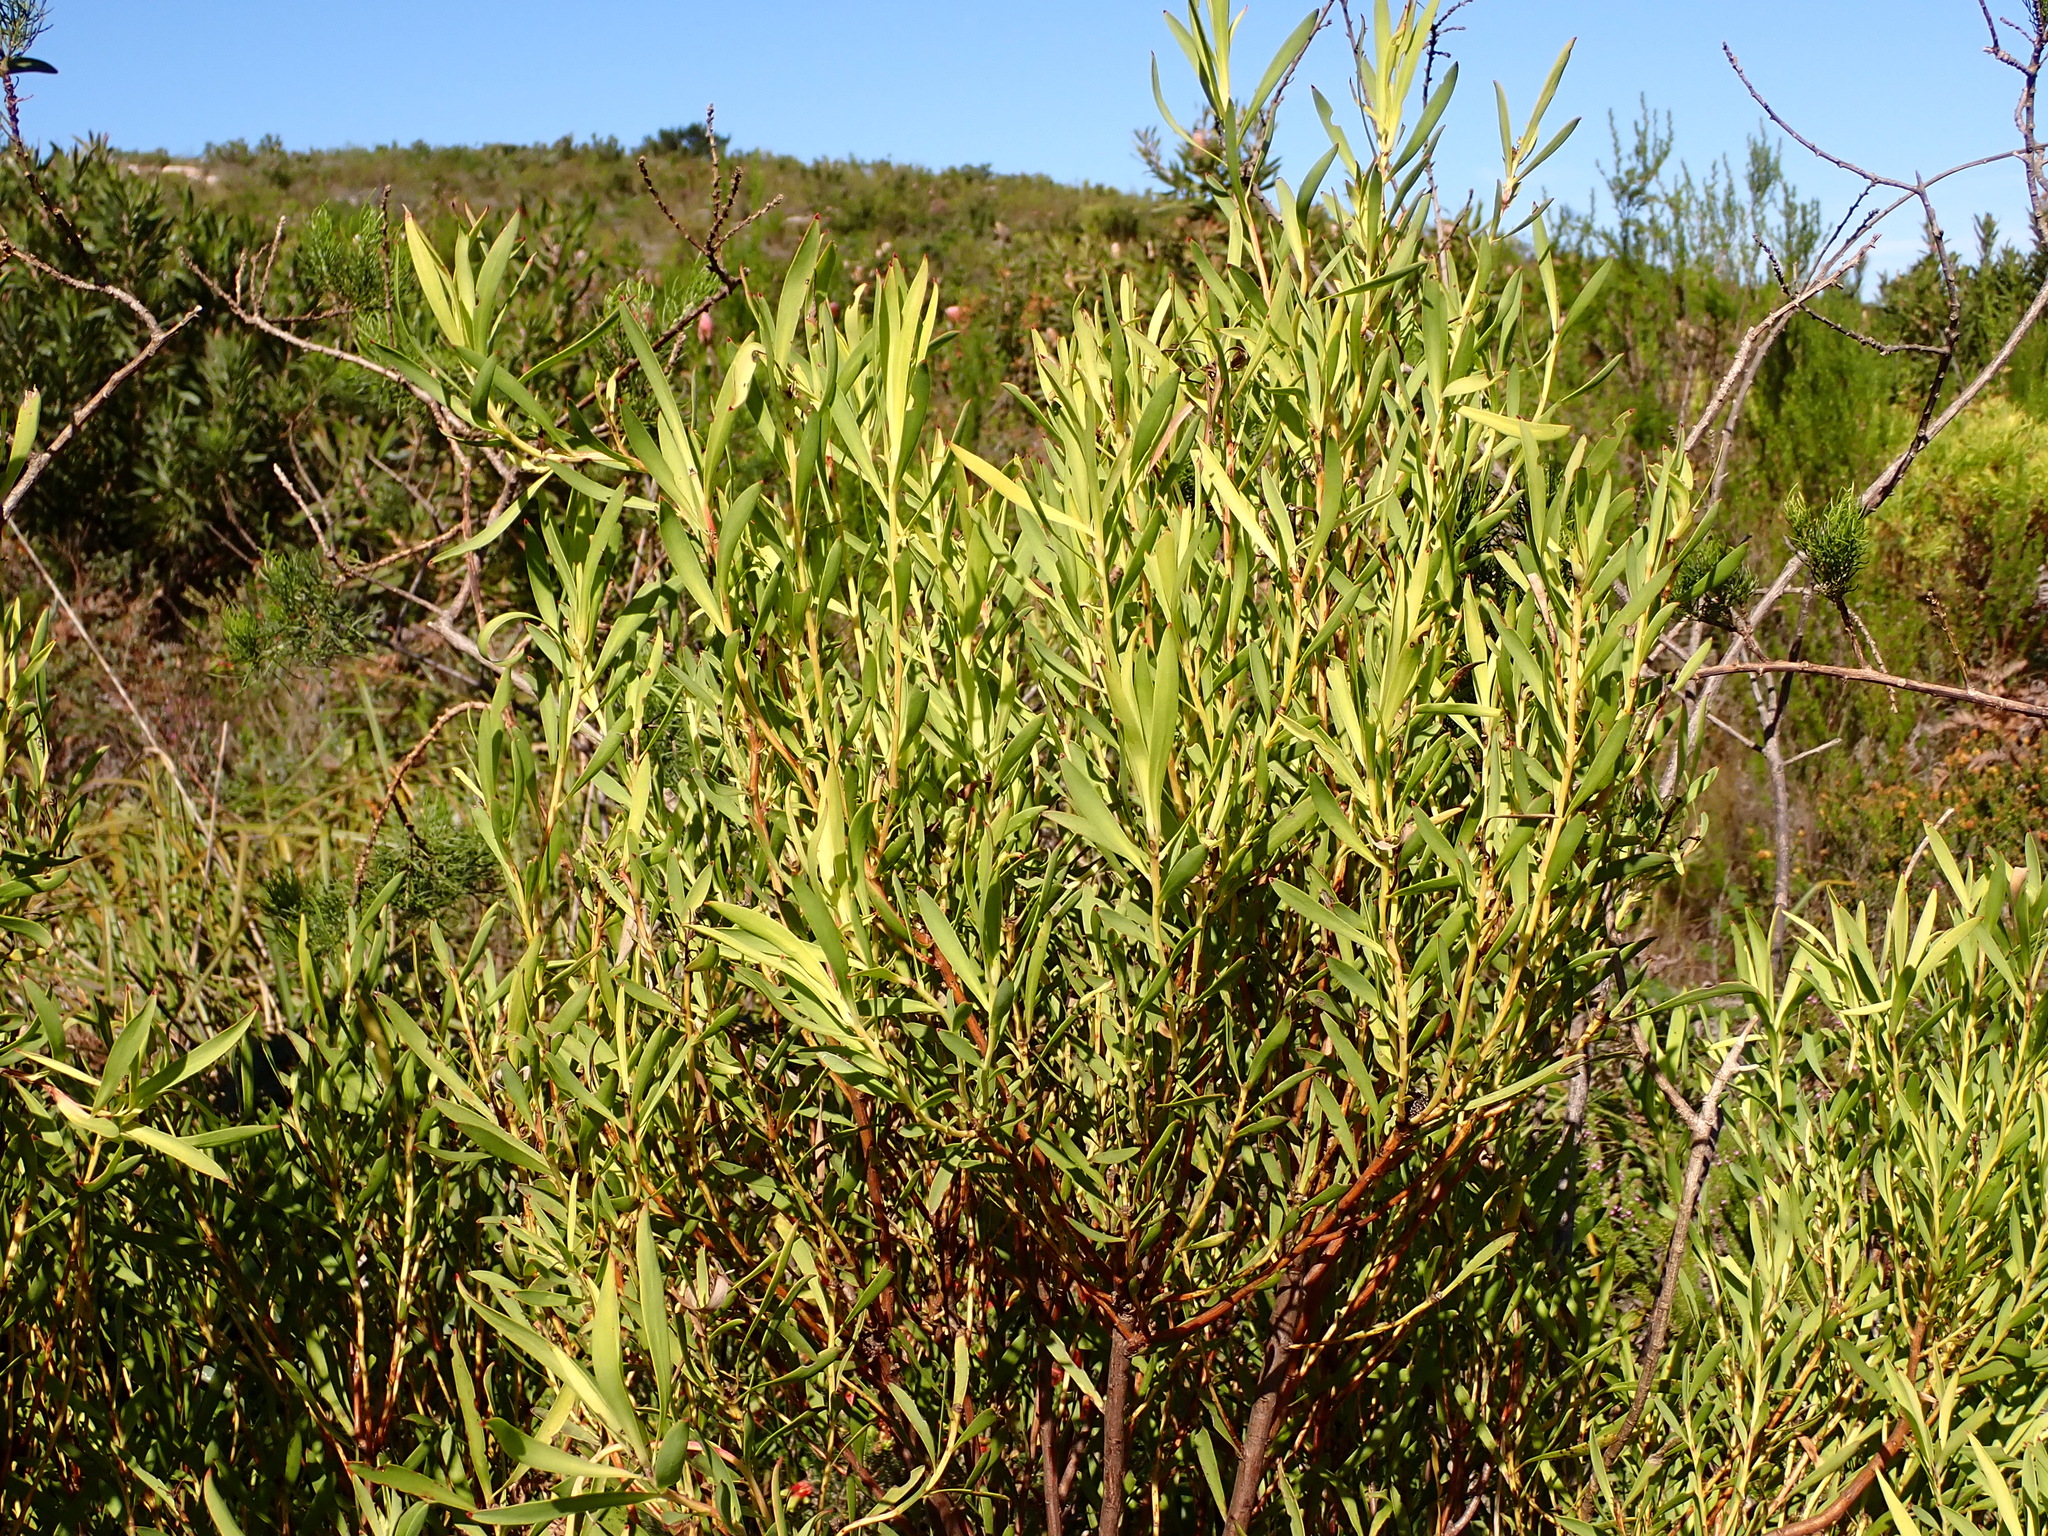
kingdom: Plantae
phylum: Tracheophyta
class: Magnoliopsida
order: Proteales
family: Proteaceae
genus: Leucadendron
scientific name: Leucadendron eucalyptifolium
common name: Gum-leaved conebush
